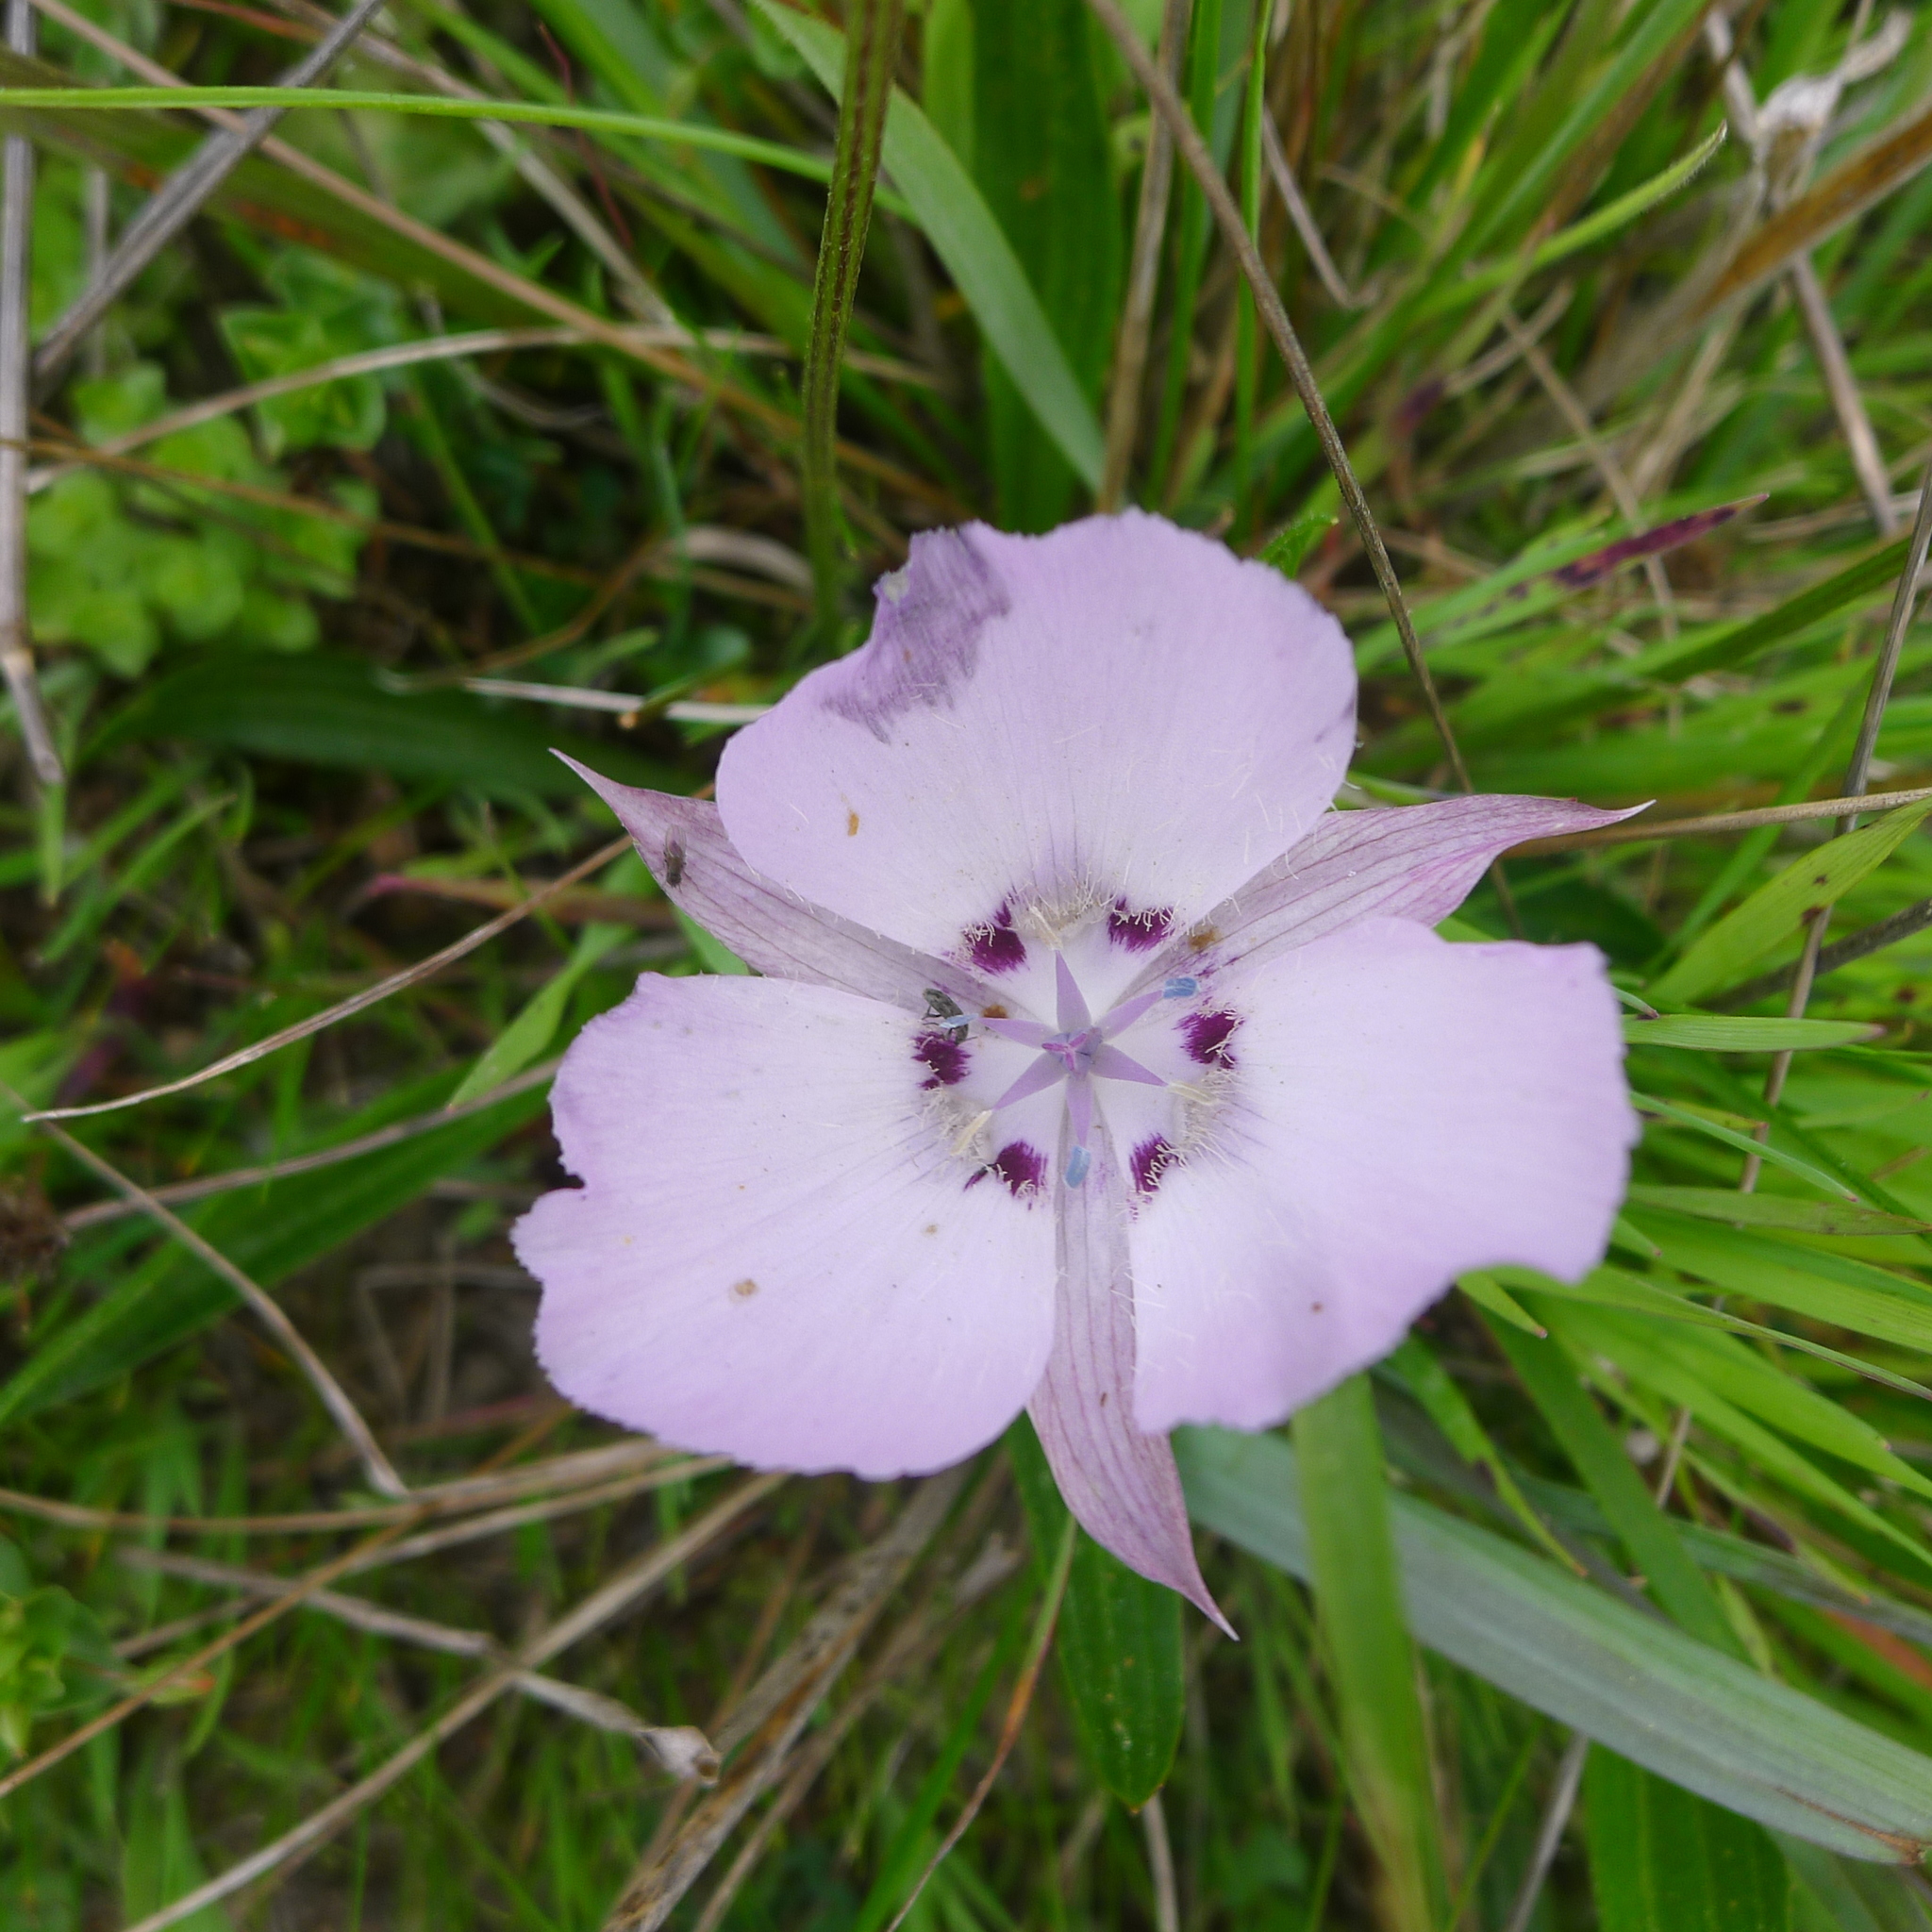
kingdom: Plantae
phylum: Tracheophyta
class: Liliopsida
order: Liliales
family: Liliaceae
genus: Calochortus
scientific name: Calochortus uniflorus
